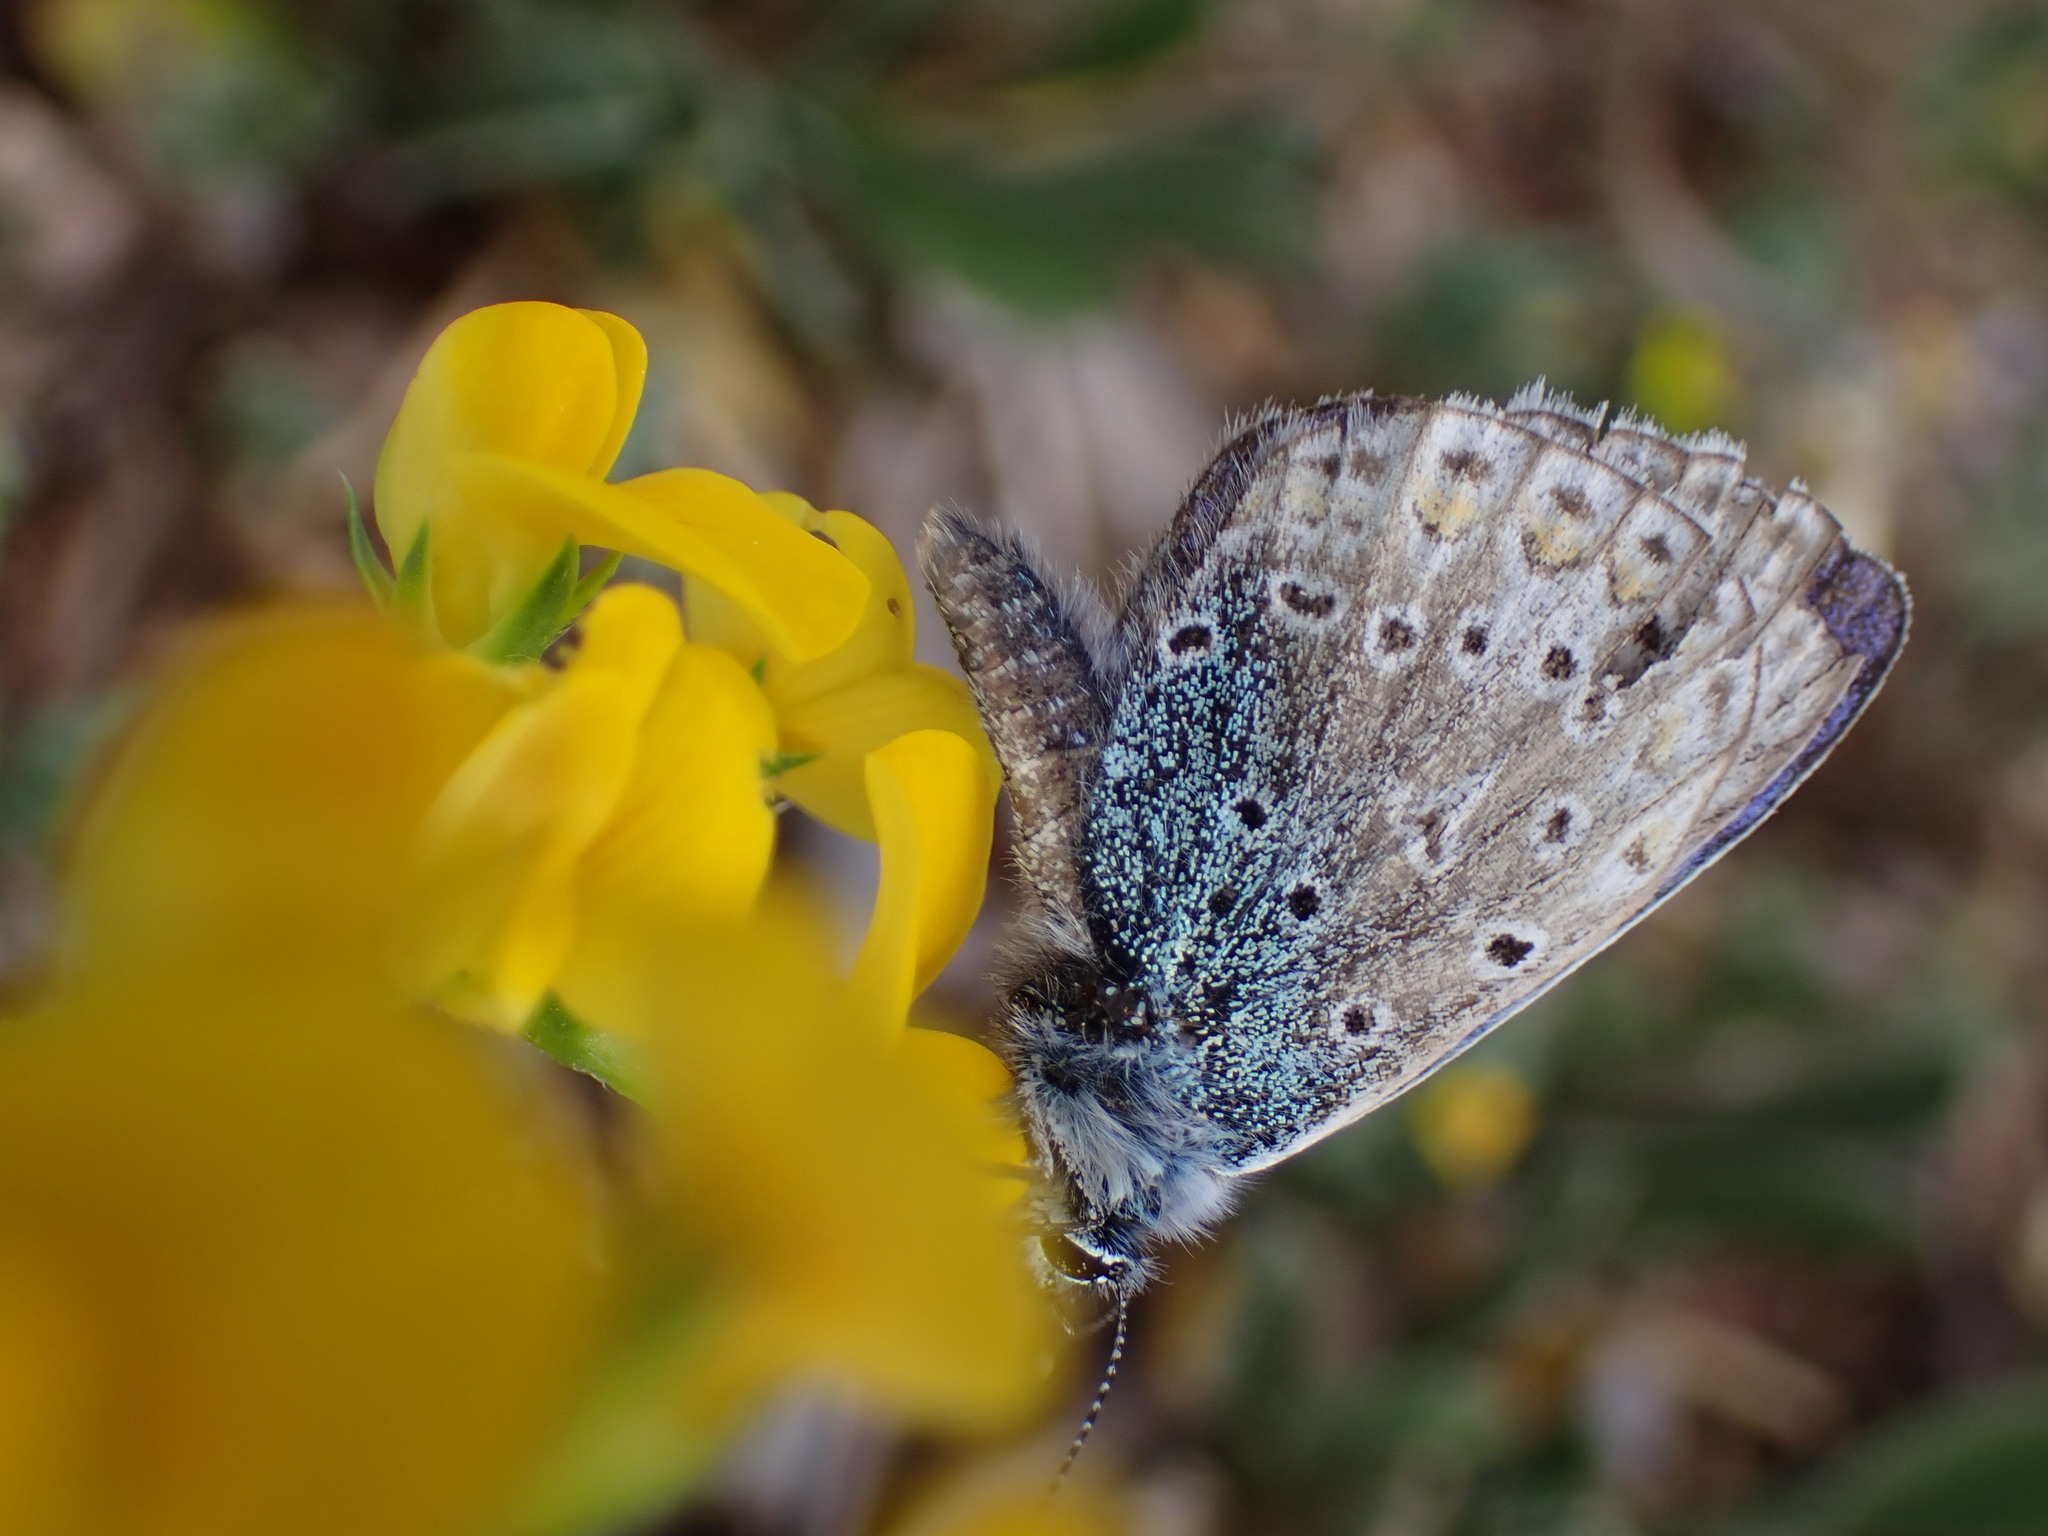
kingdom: Animalia
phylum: Arthropoda
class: Insecta
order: Lepidoptera
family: Lycaenidae
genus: Polyommatus
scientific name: Polyommatus icarus
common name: Common blue
